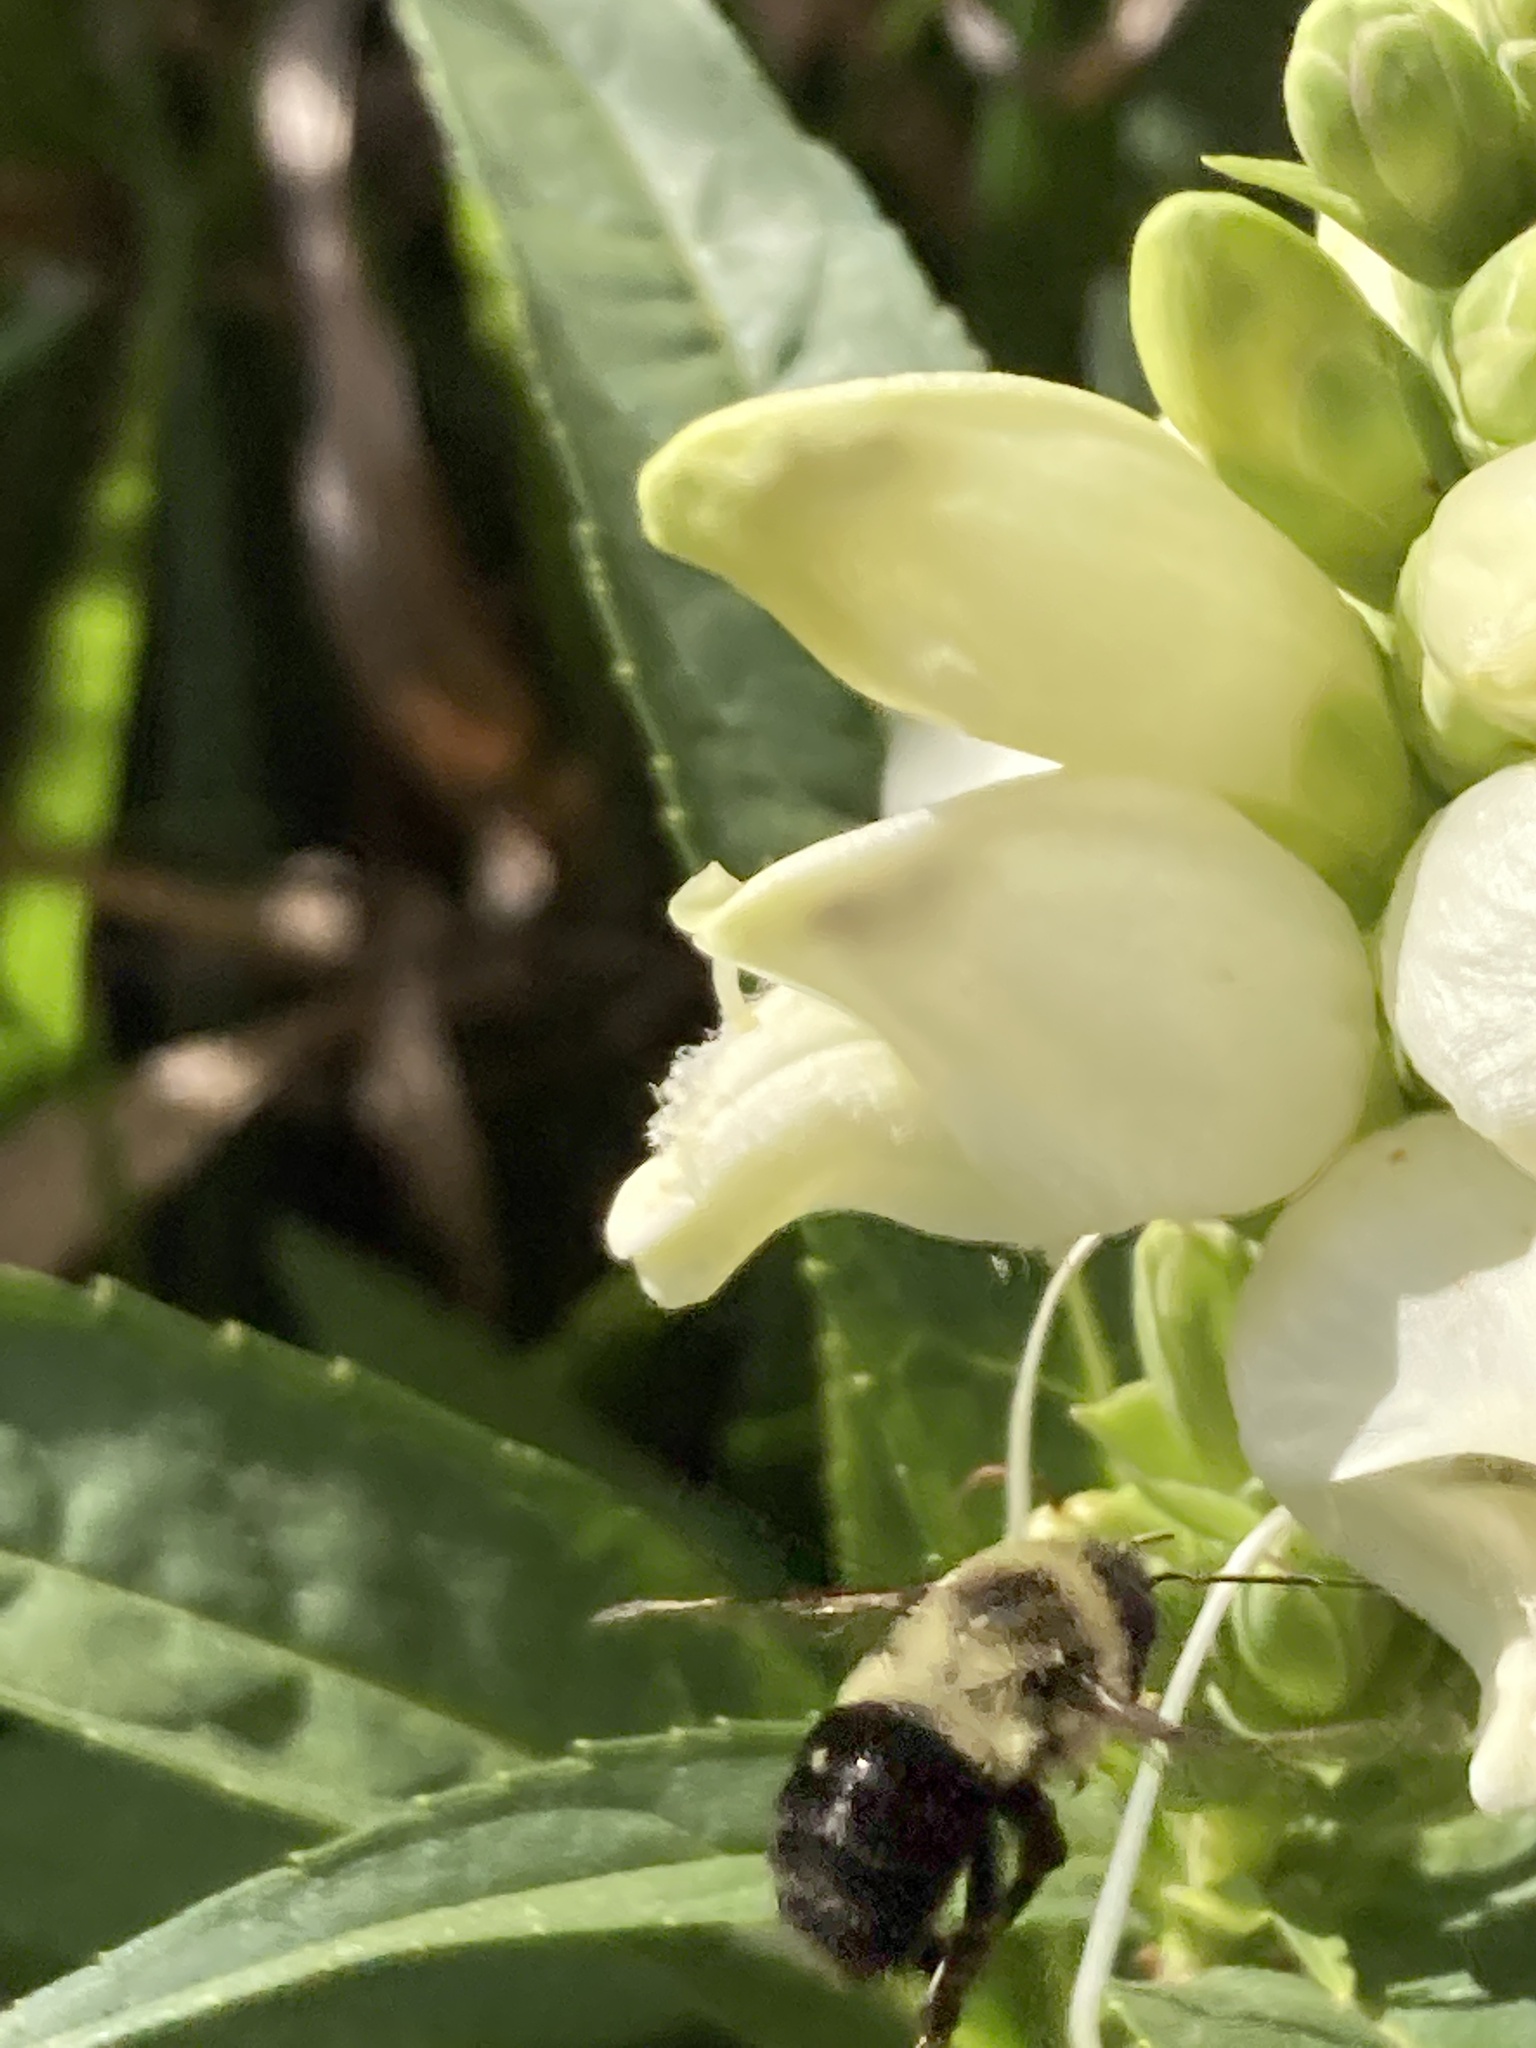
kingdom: Animalia
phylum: Arthropoda
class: Insecta
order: Hymenoptera
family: Apidae
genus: Bombus
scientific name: Bombus impatiens
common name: Common eastern bumble bee
